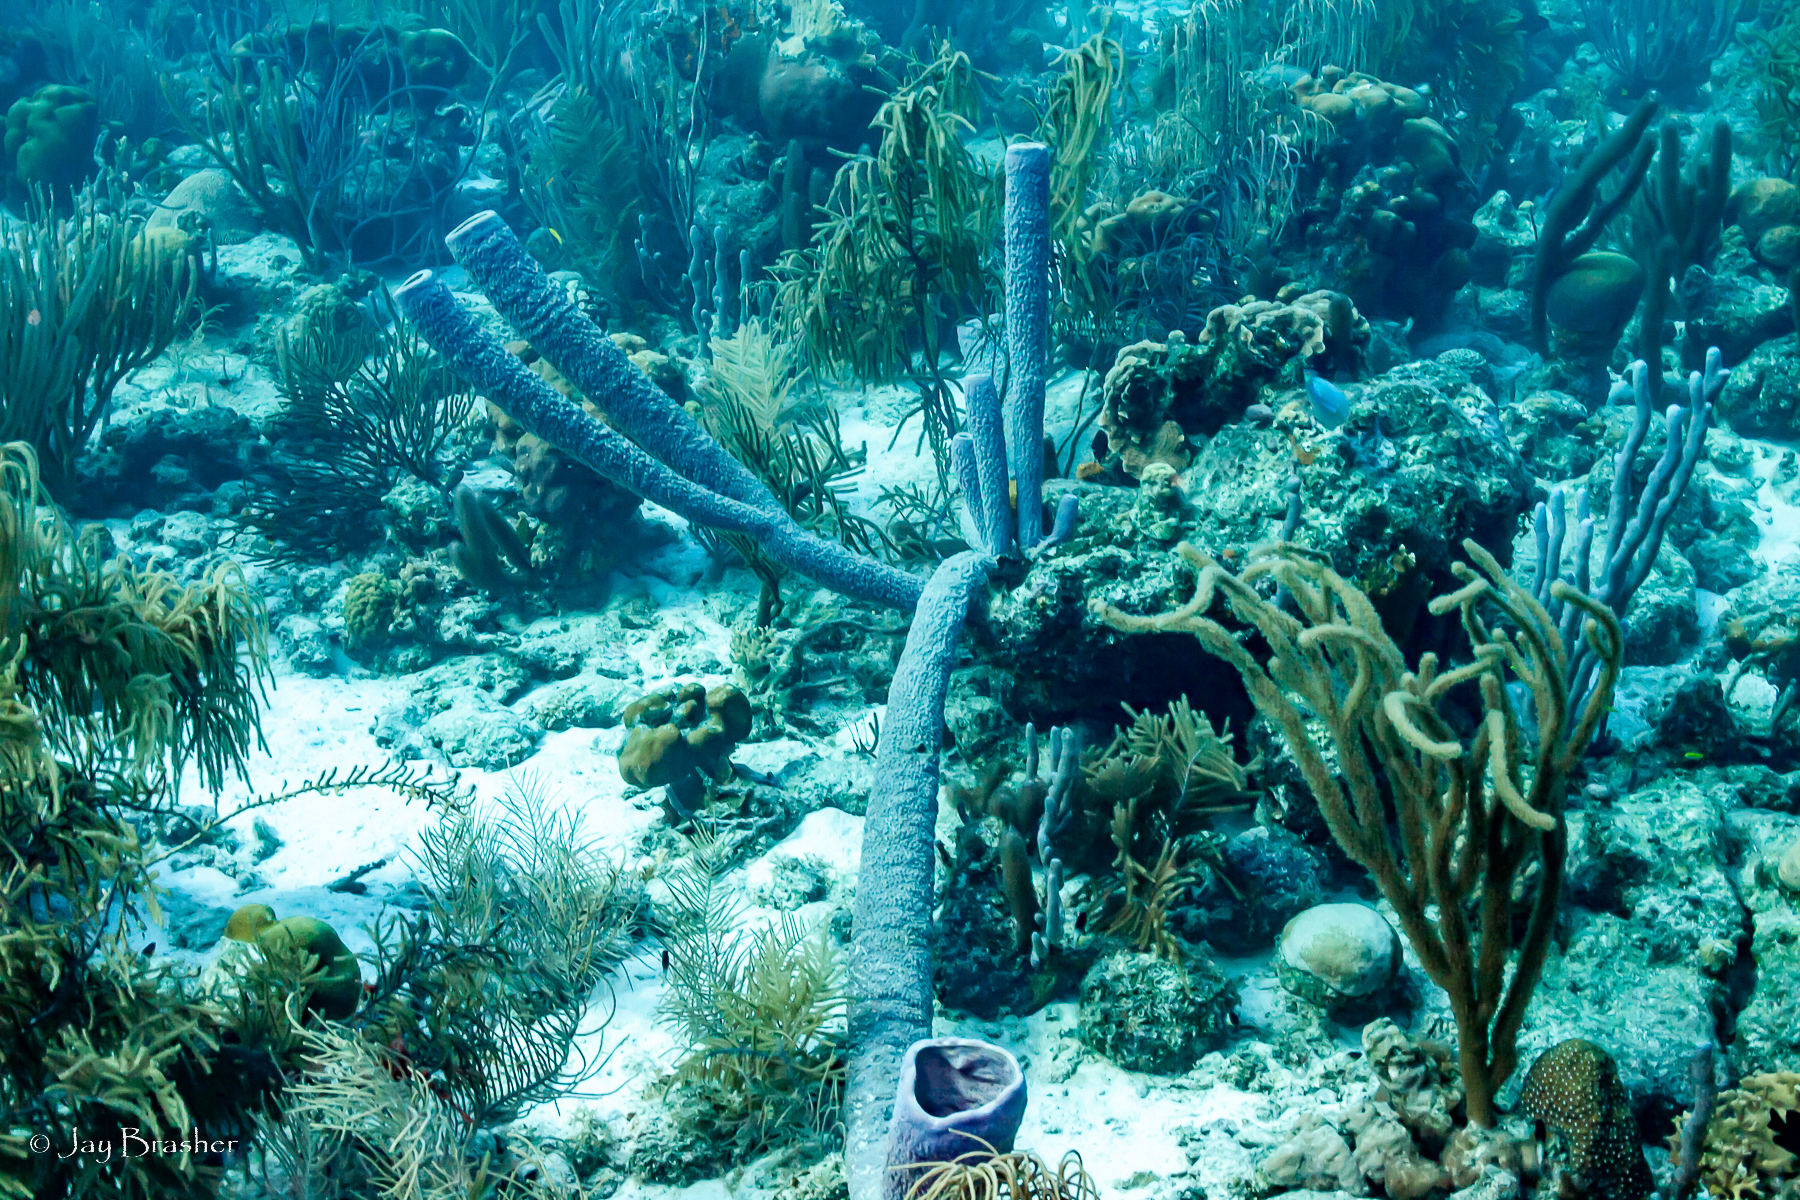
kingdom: Animalia
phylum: Porifera
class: Demospongiae
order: Verongiida
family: Aplysinidae
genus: Aplysina
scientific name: Aplysina archeri
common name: Stove-pipe sponge
